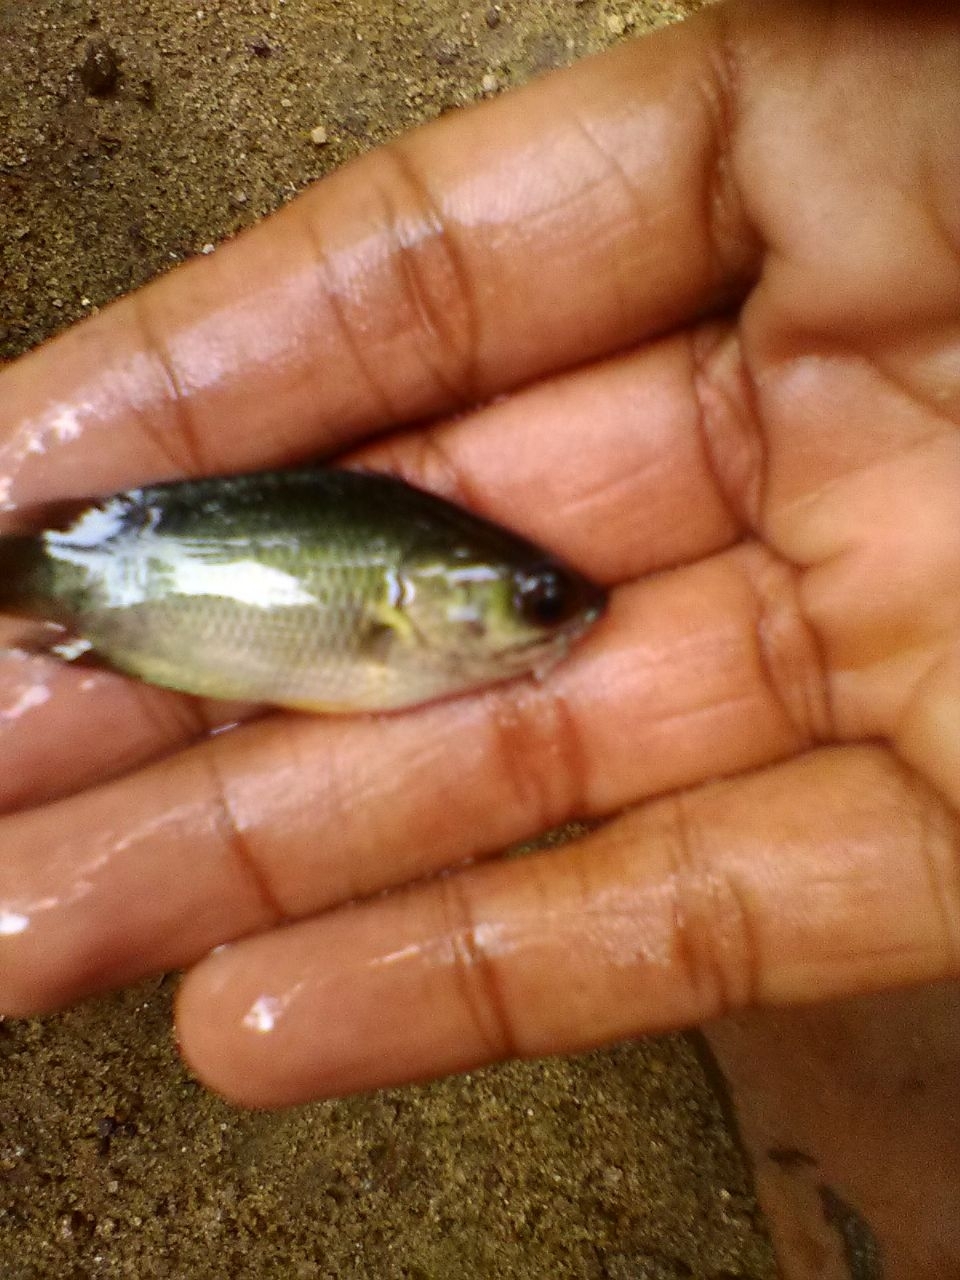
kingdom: Animalia
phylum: Chordata
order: Perciformes
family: Anabantidae
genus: Anabas
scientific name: Anabas testudineus
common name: Climbing perch
